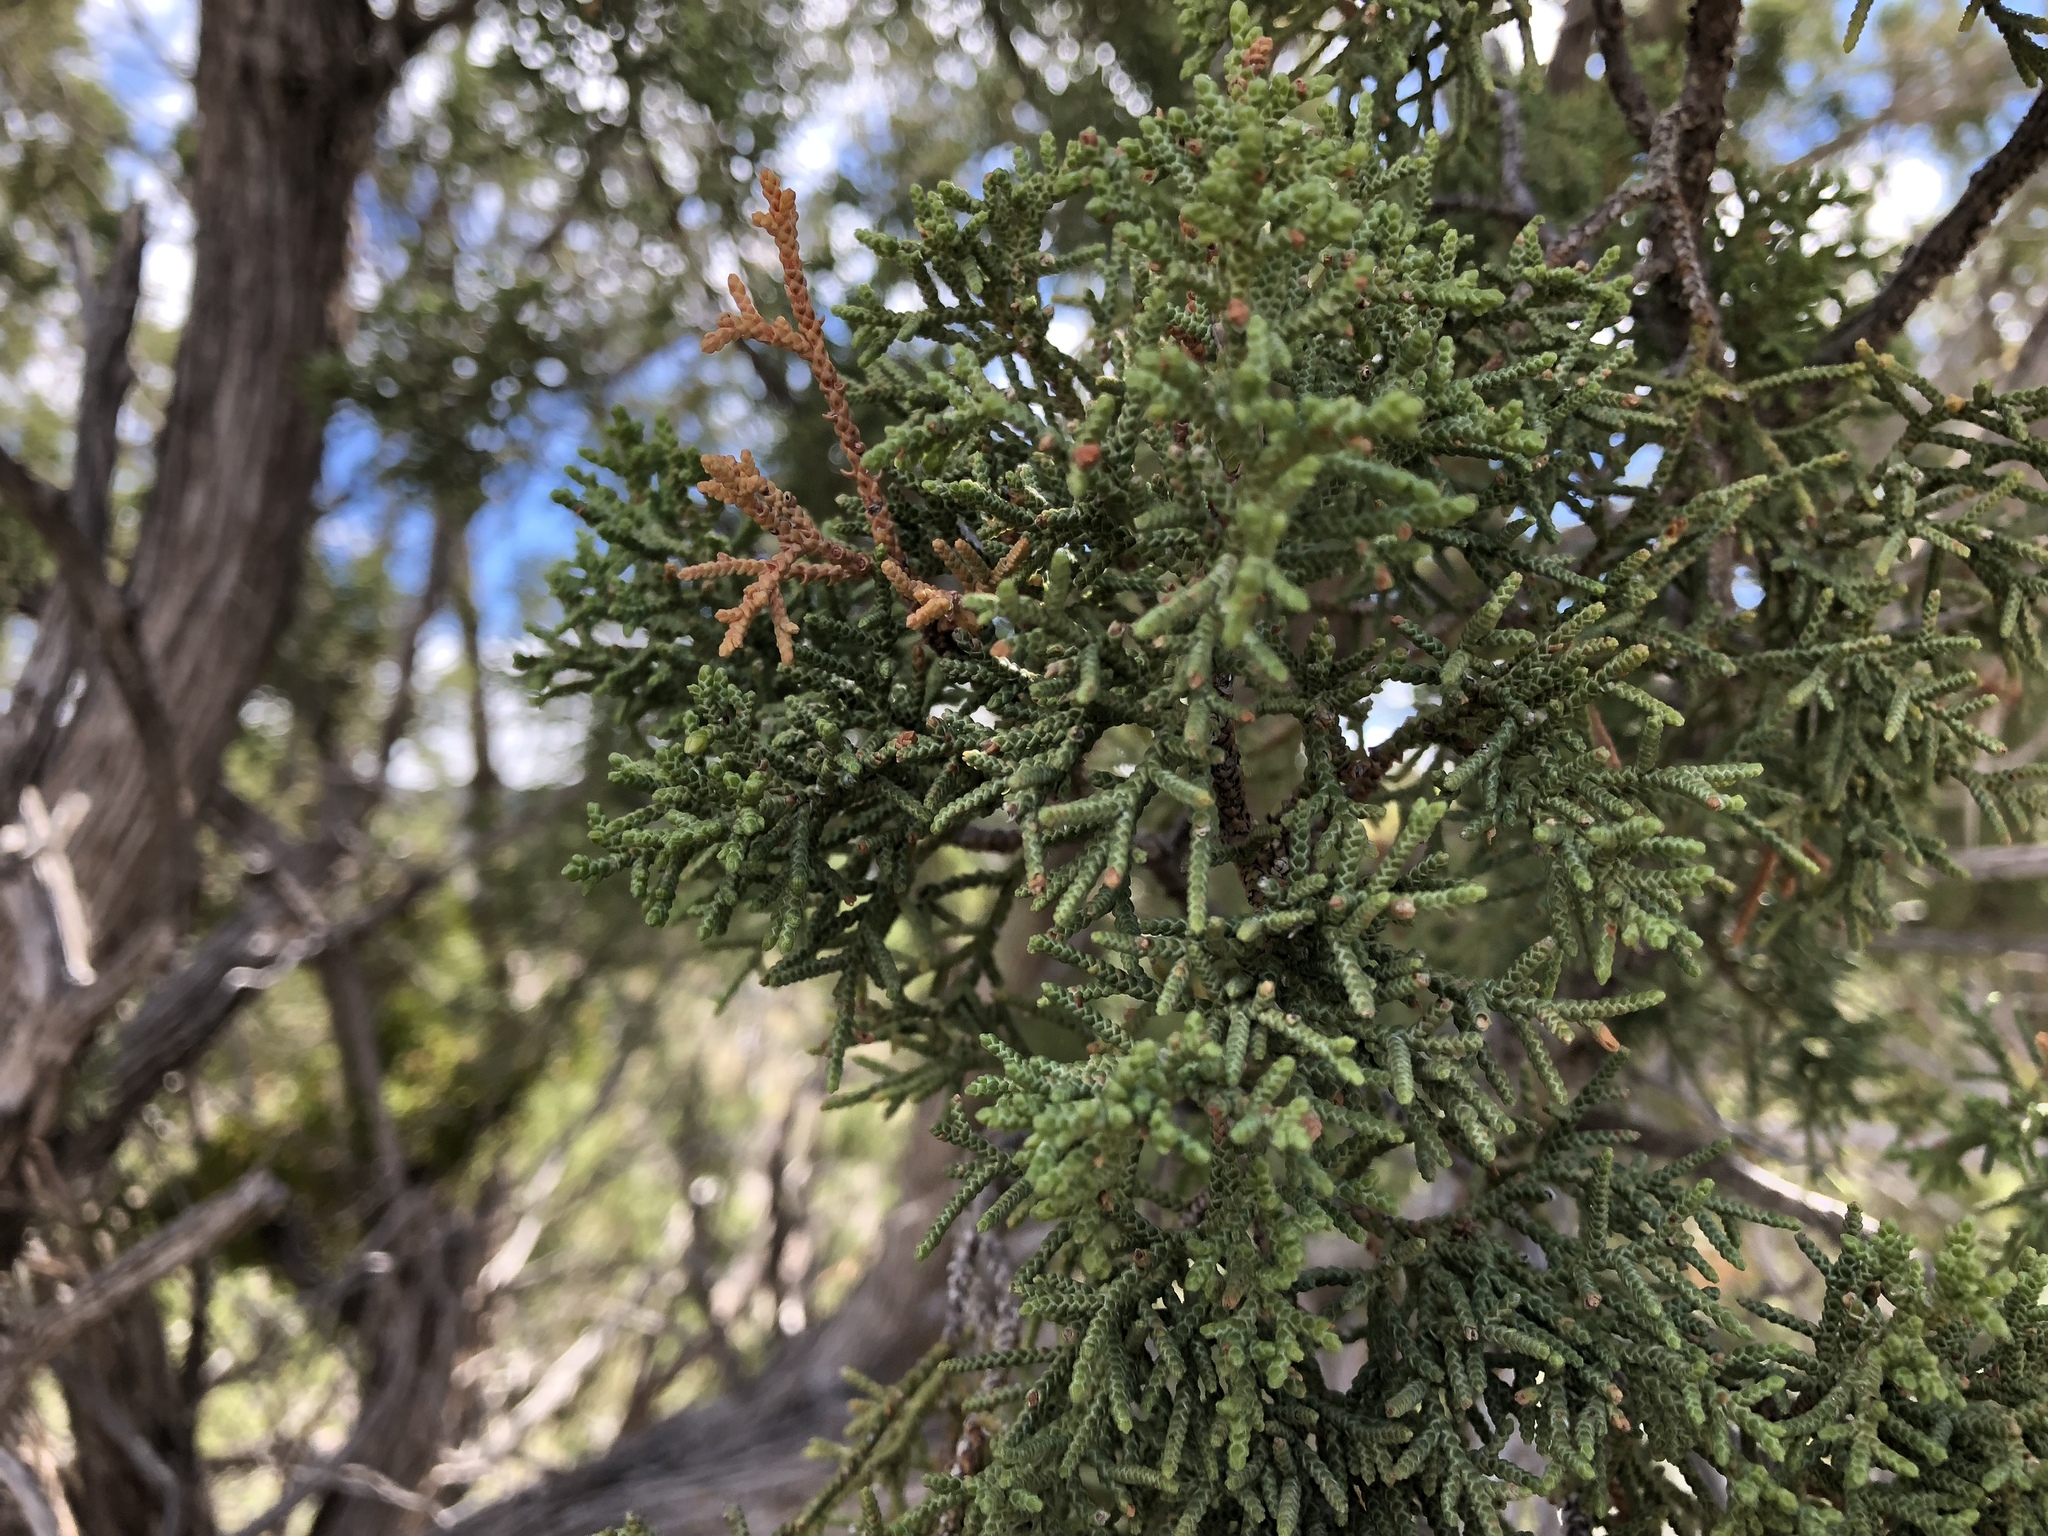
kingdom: Plantae
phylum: Tracheophyta
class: Pinopsida
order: Pinales
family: Cupressaceae
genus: Juniperus
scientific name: Juniperus monosperma
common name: One-seed juniper
